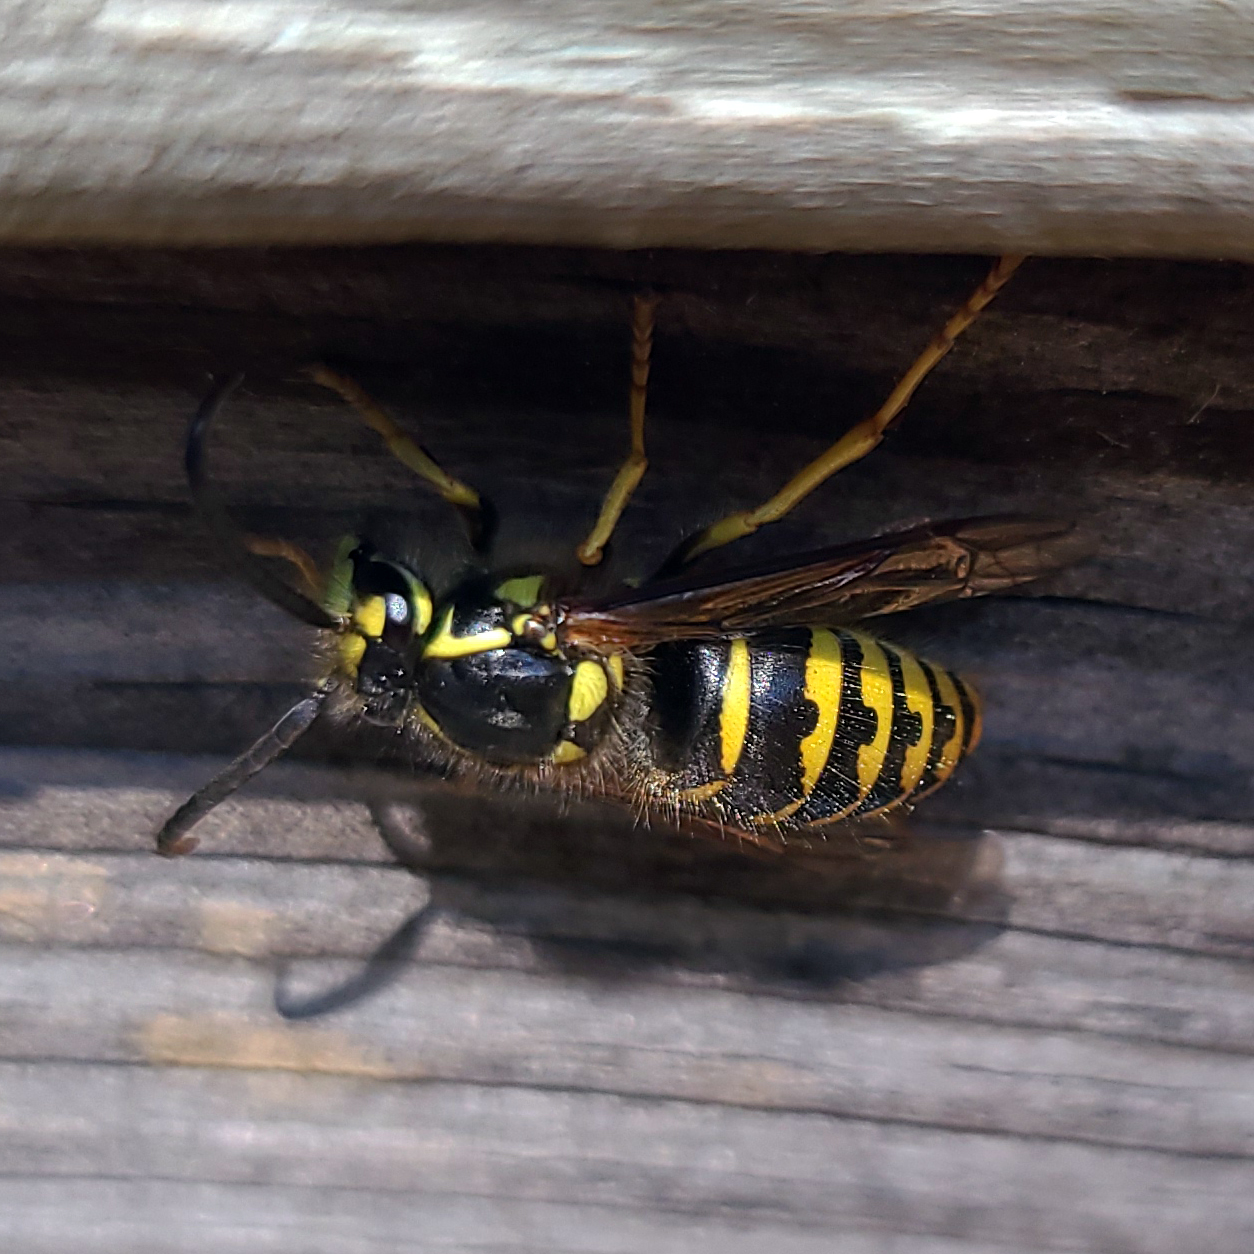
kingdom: Animalia
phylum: Arthropoda
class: Insecta
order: Hymenoptera
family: Vespidae
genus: Dolichovespula
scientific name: Dolichovespula arenaria
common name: Aerial yellowjacket
